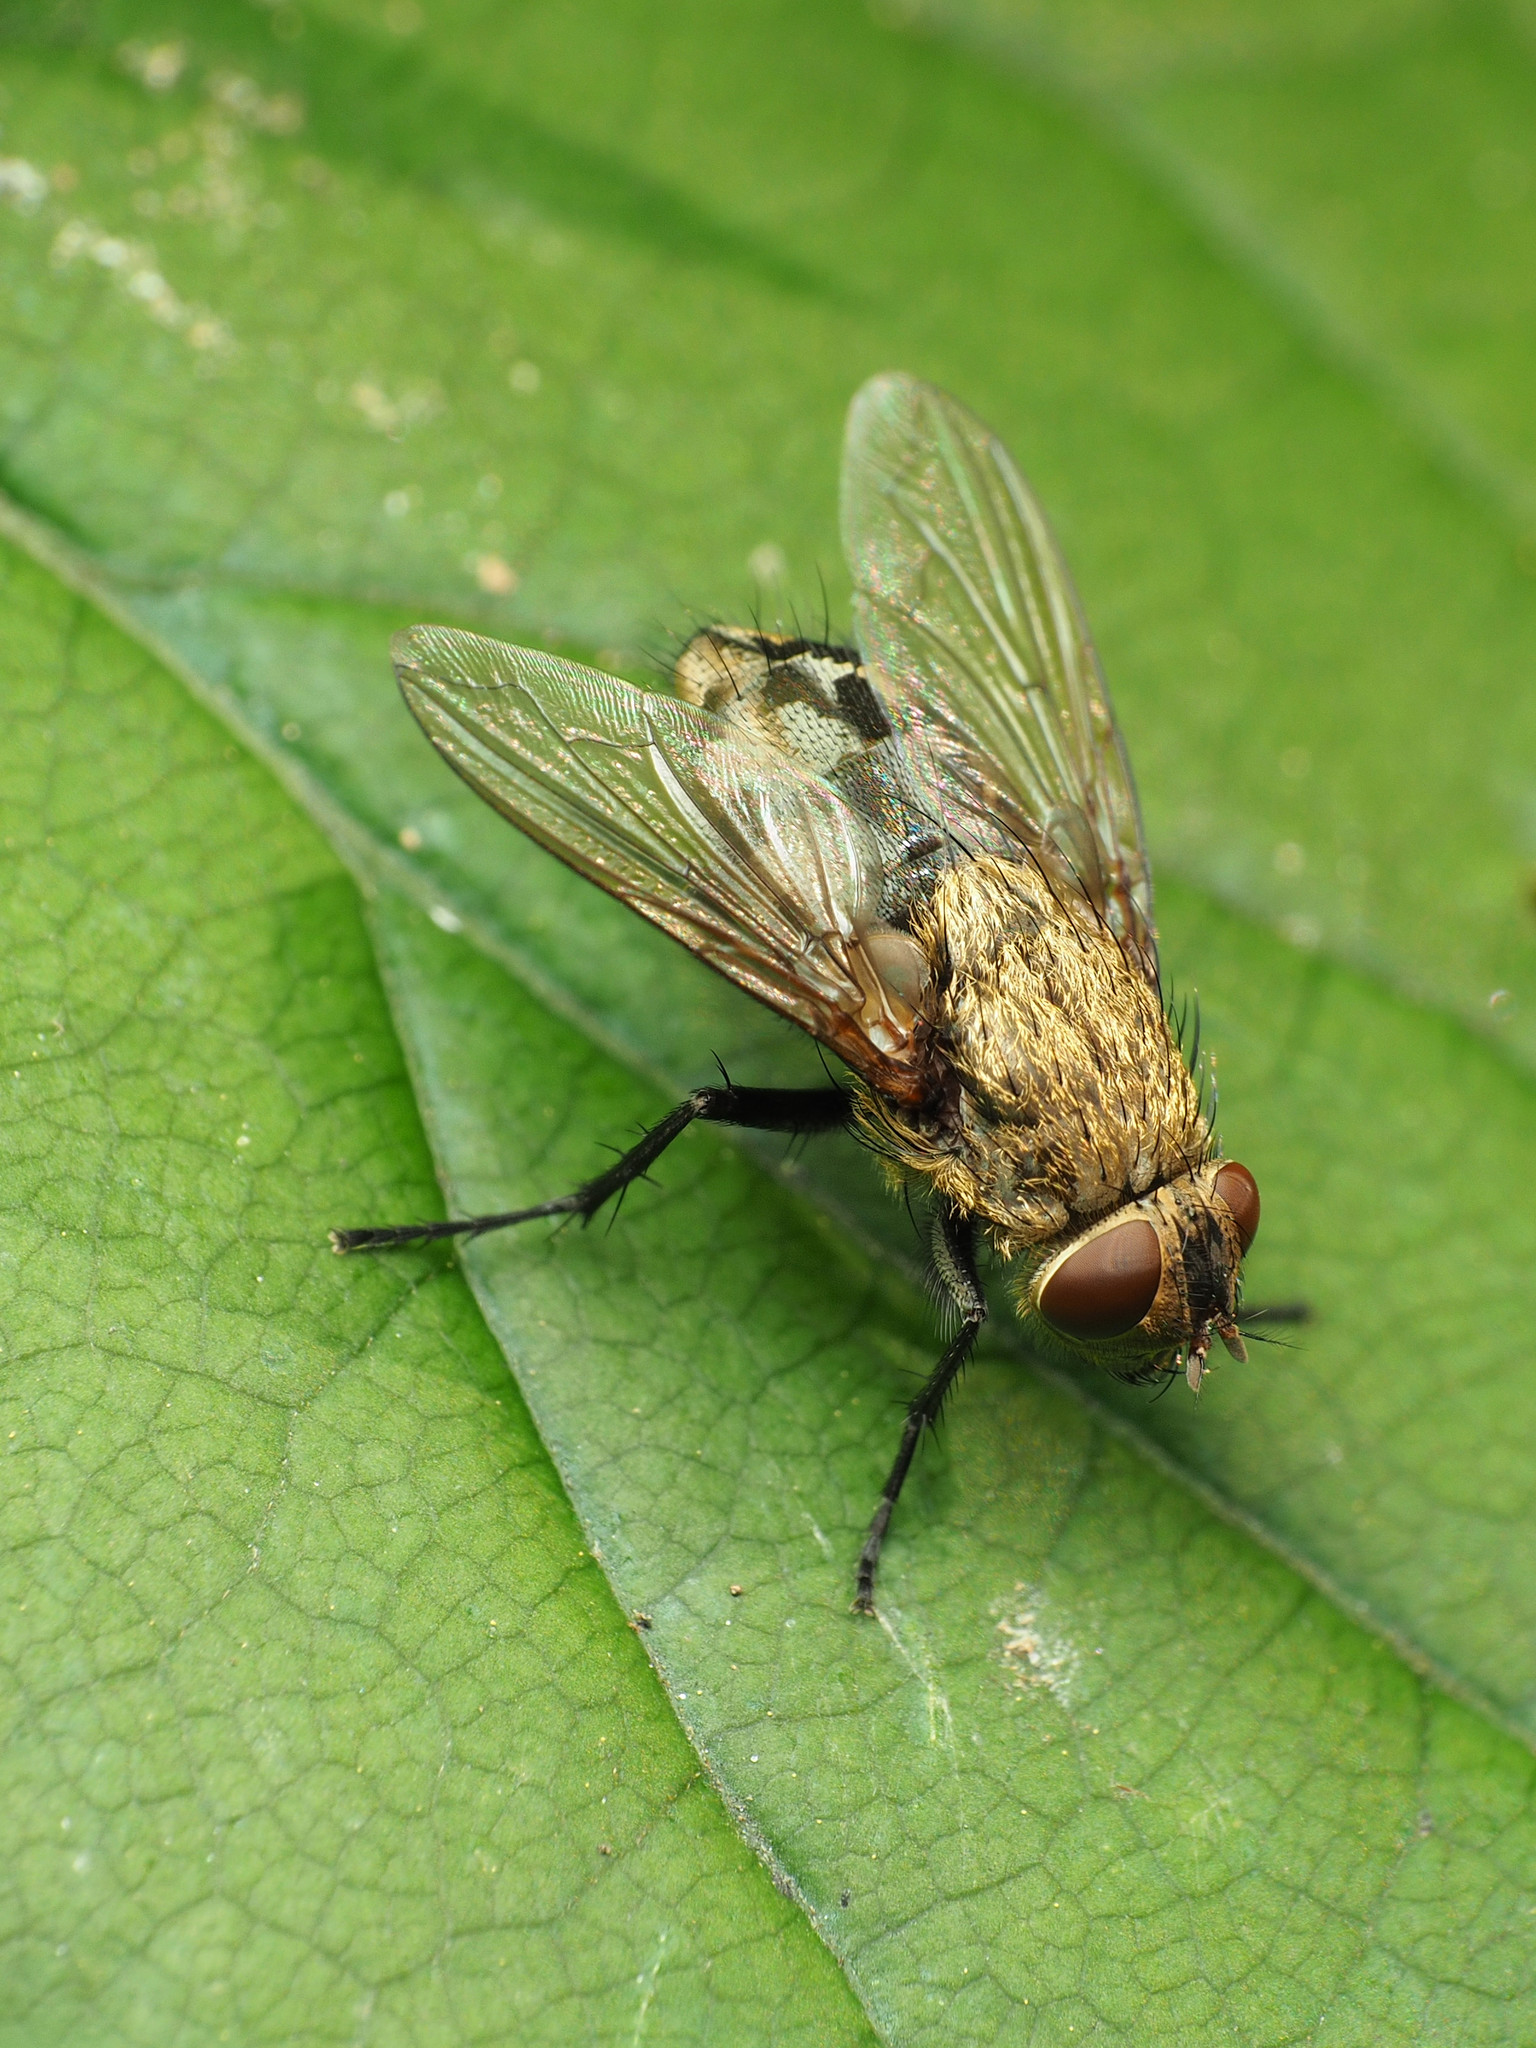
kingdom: Animalia
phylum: Arthropoda
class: Insecta
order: Diptera
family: Polleniidae
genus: Pollenia
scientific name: Pollenia
